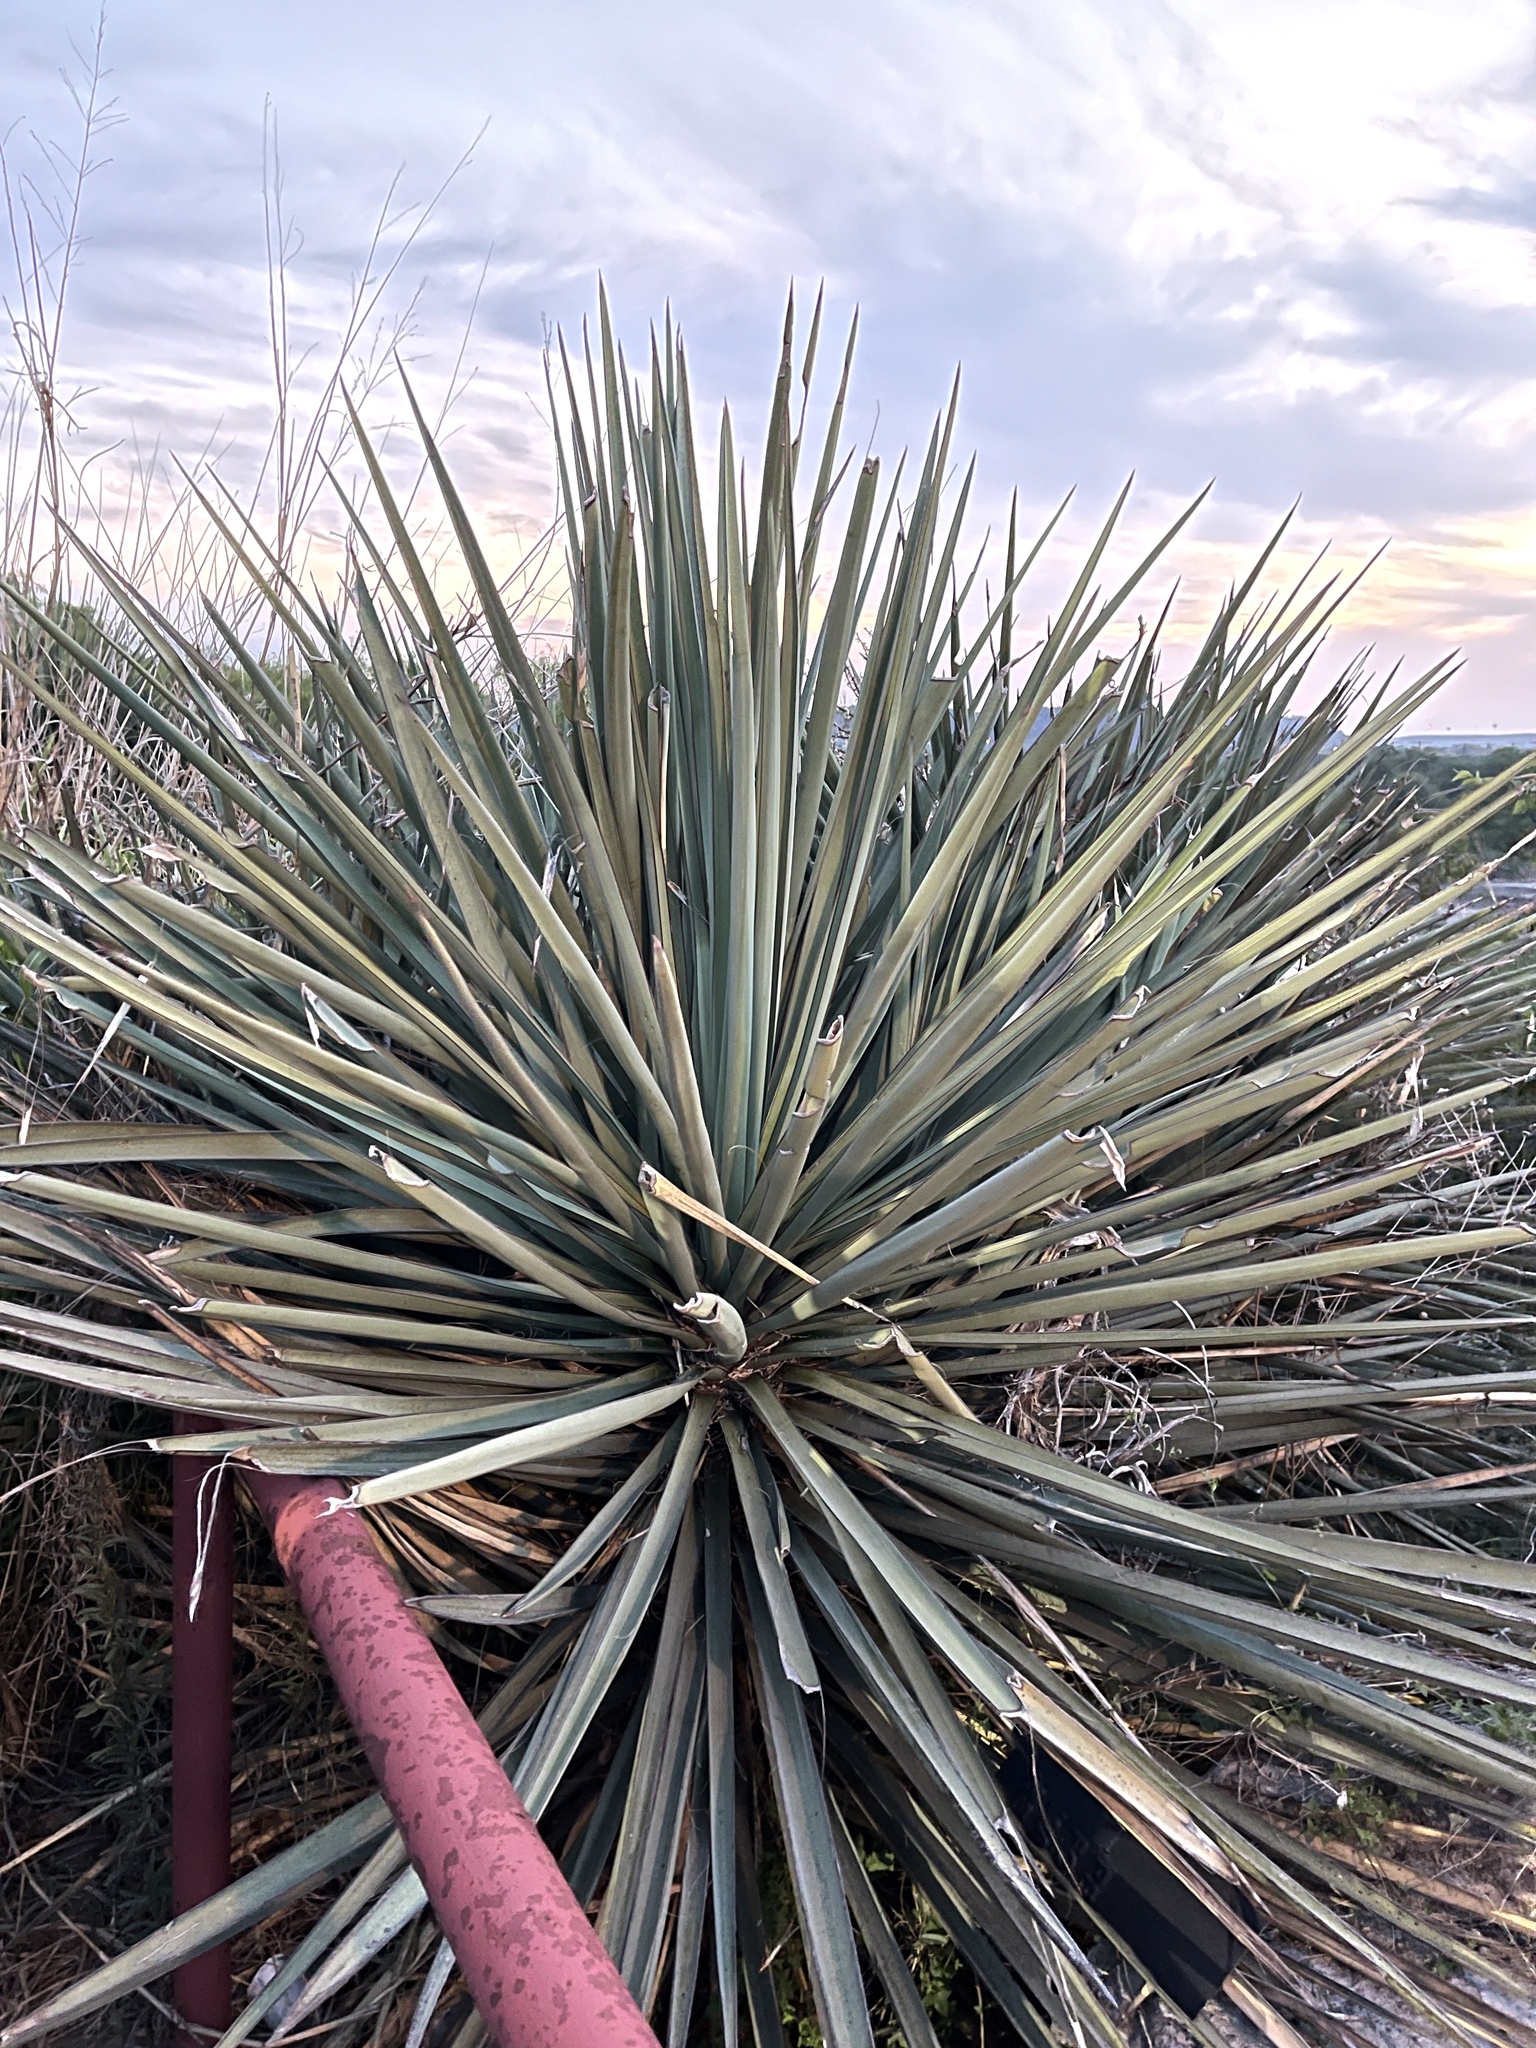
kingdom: Plantae
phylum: Tracheophyta
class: Liliopsida
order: Asparagales
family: Asparagaceae
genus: Yucca
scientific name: Yucca treculiana
